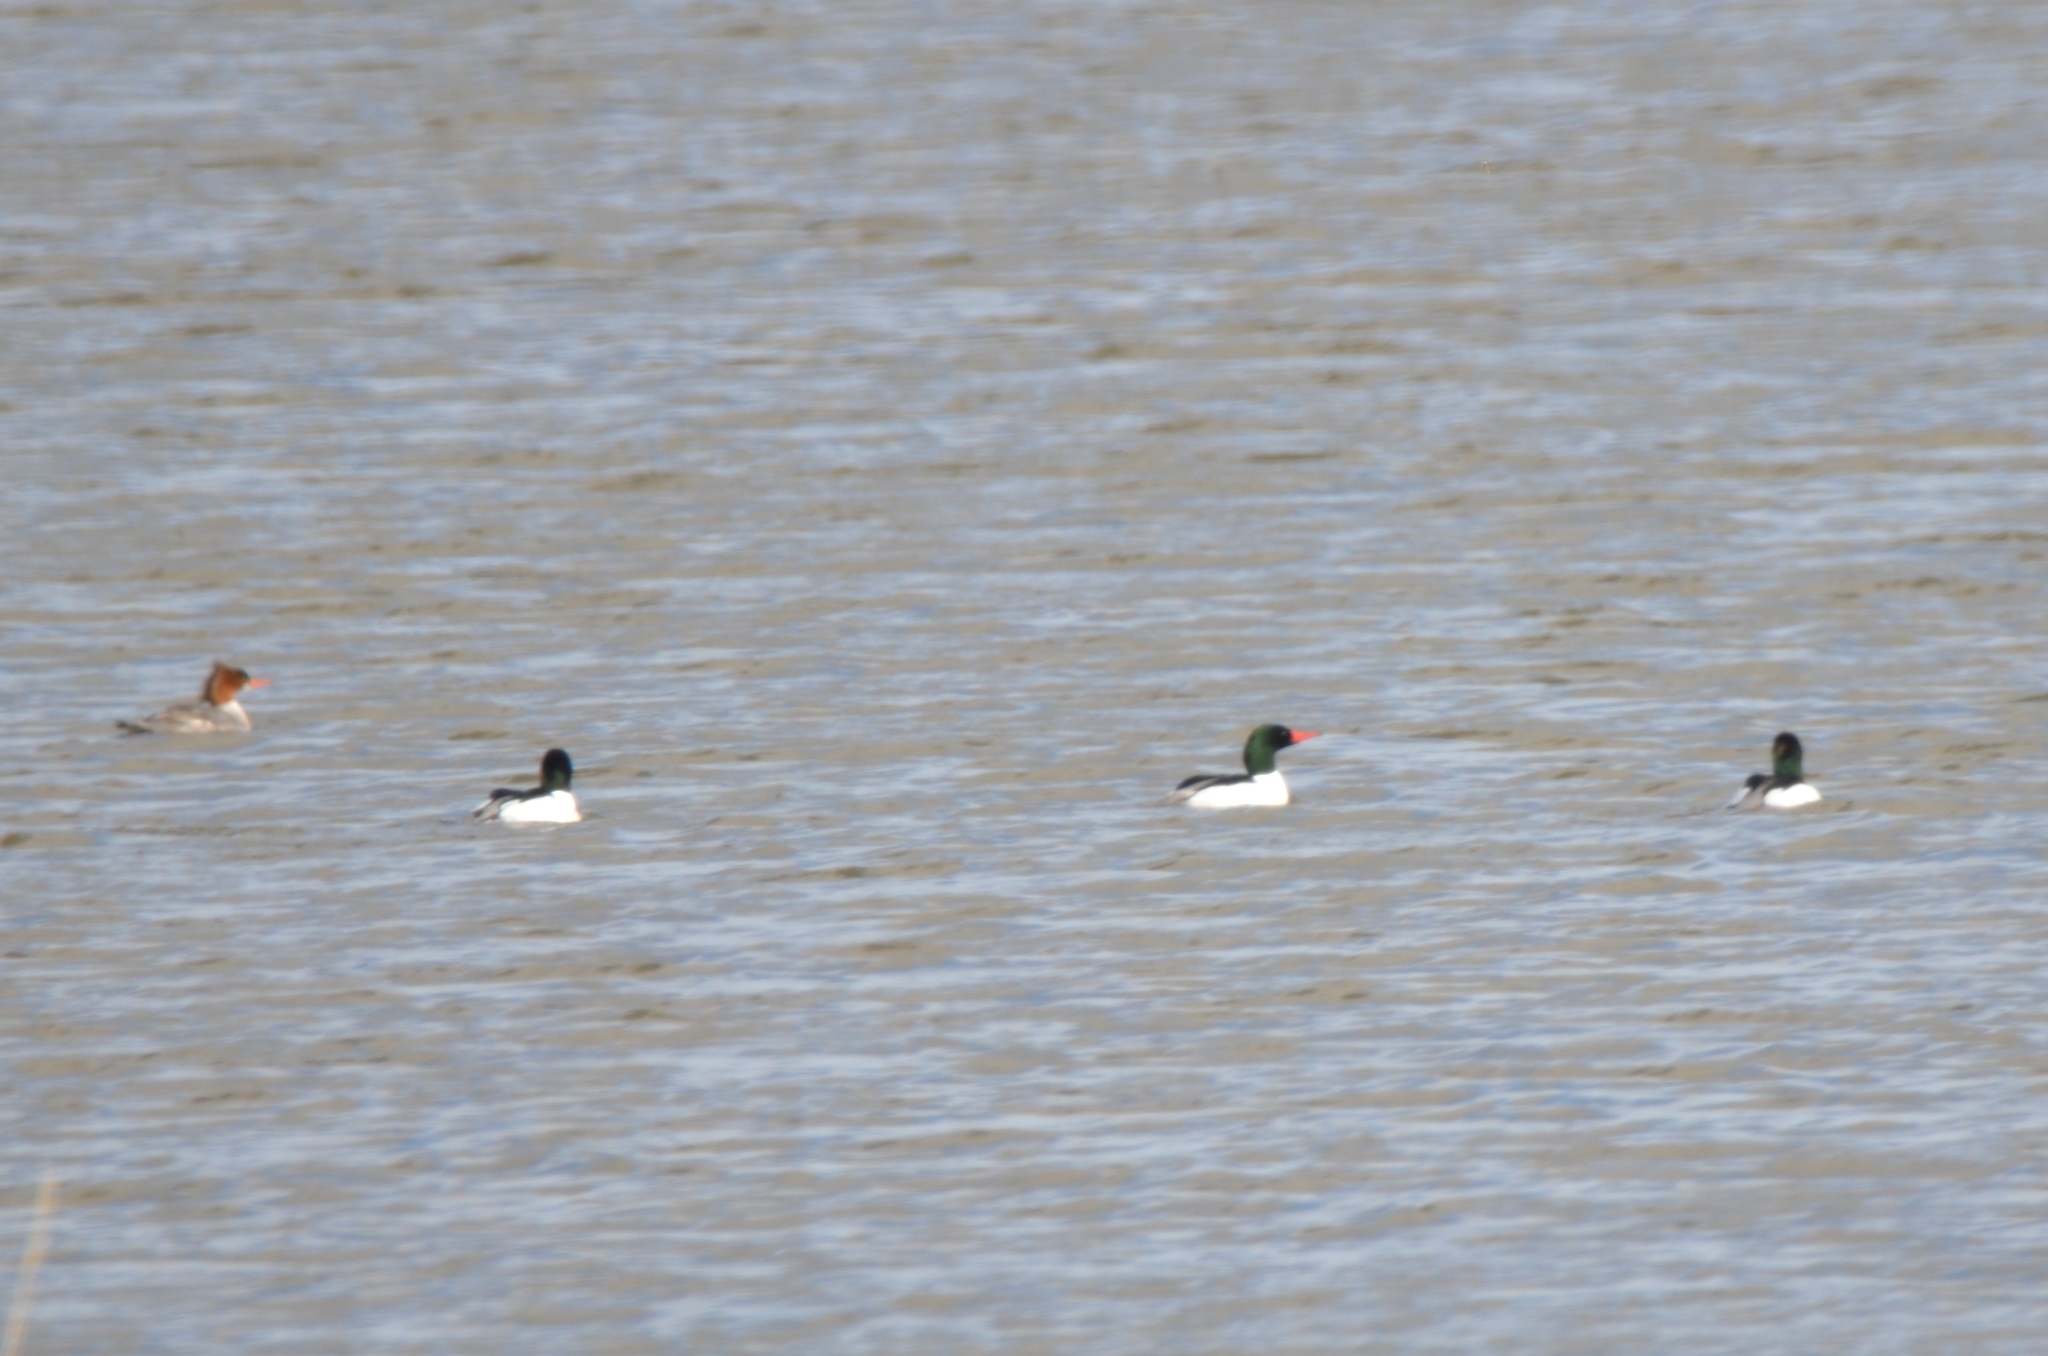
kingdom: Animalia
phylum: Chordata
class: Aves
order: Anseriformes
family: Anatidae
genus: Mergus
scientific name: Mergus merganser
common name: Common merganser
